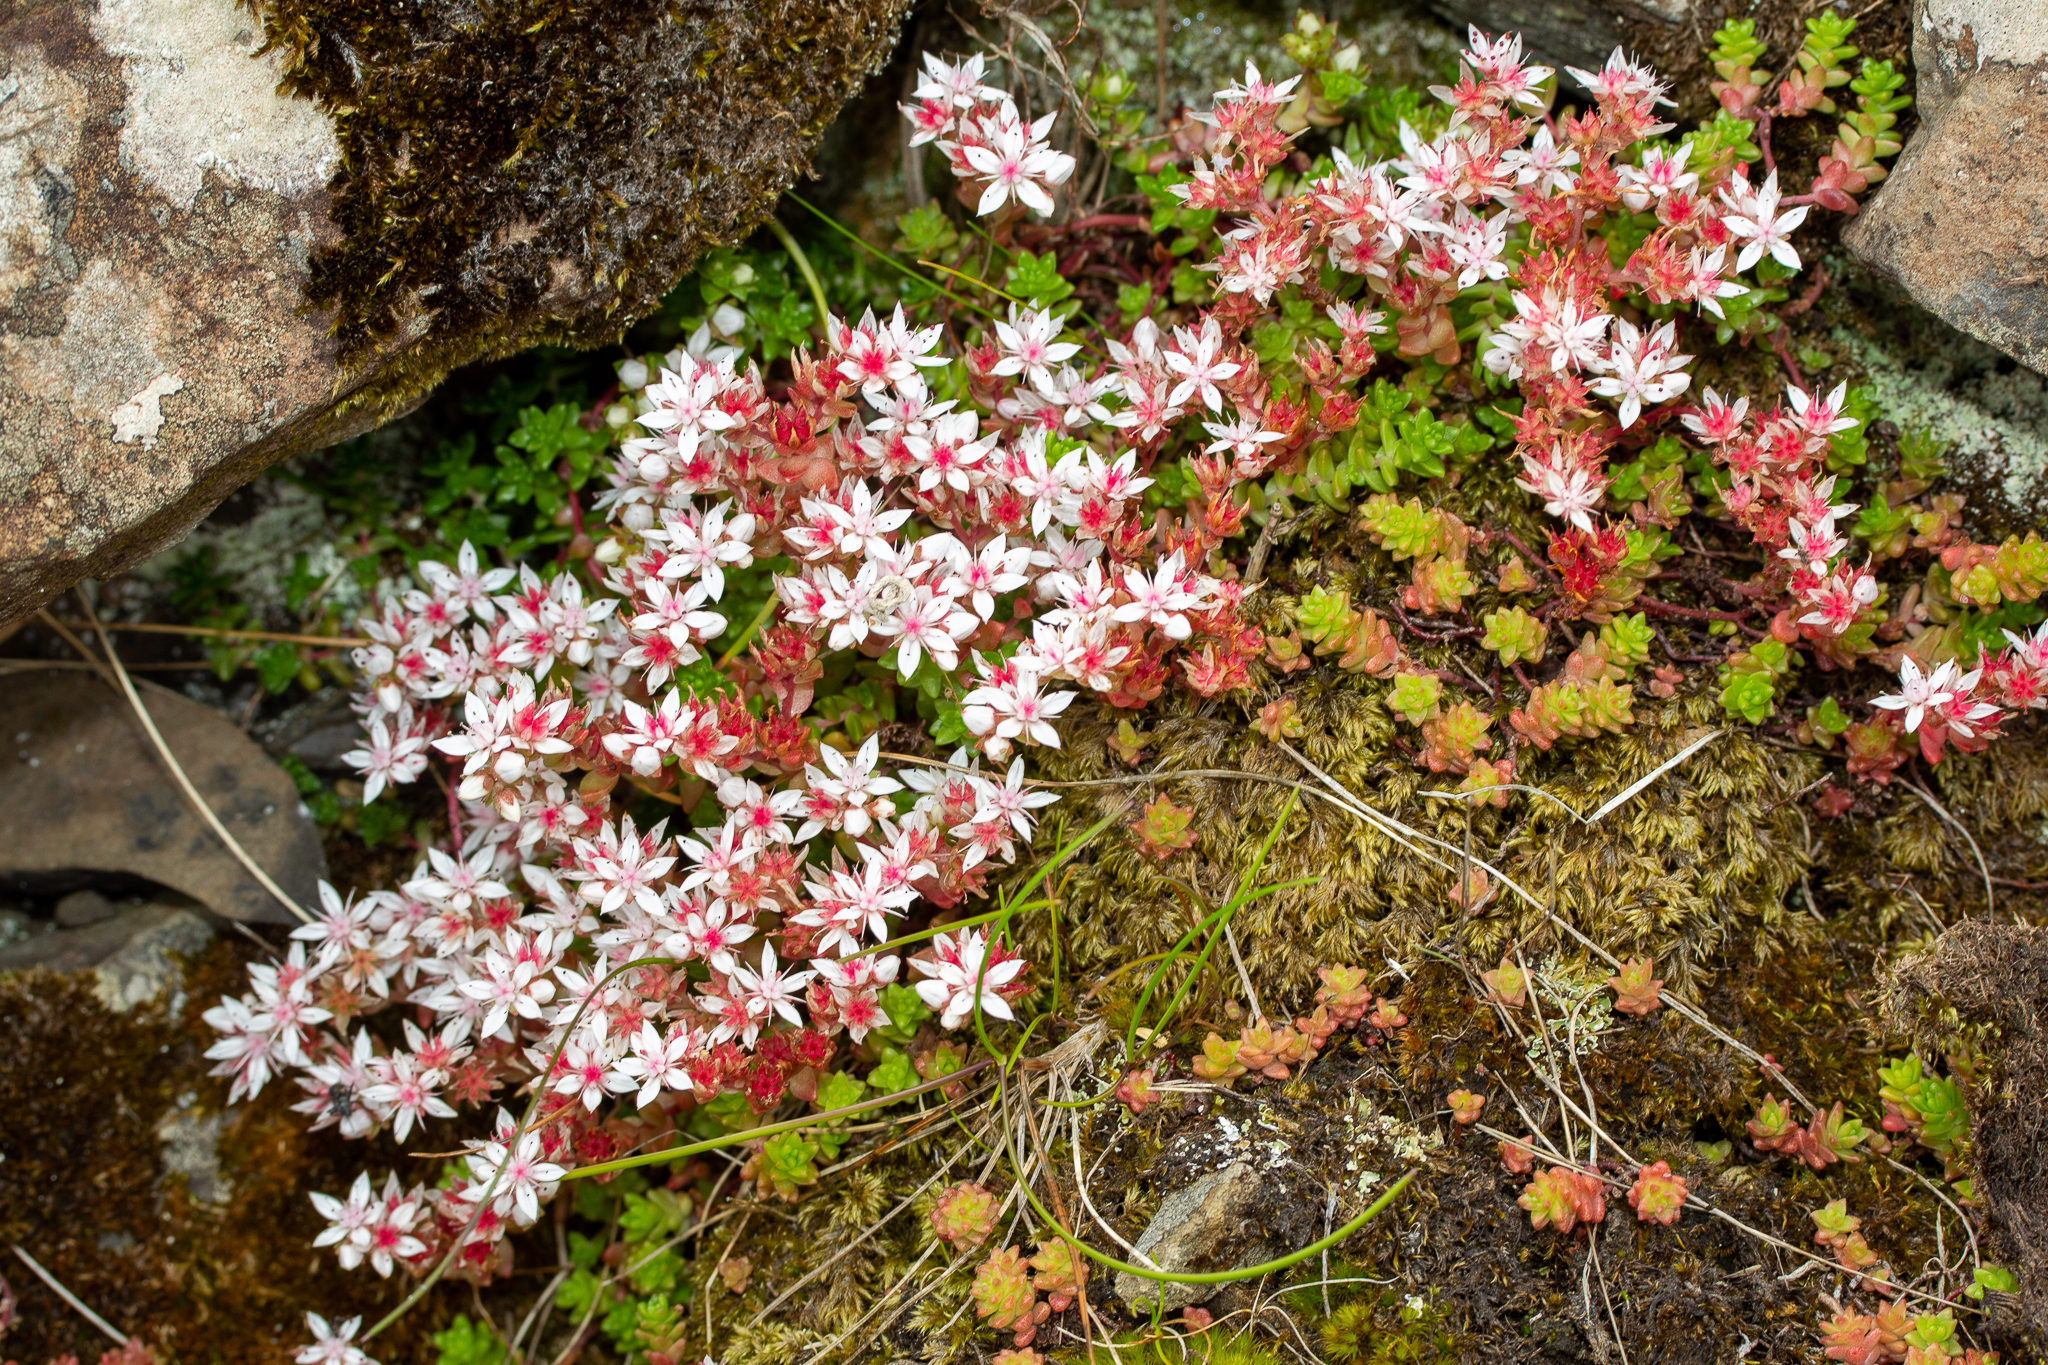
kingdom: Plantae
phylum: Tracheophyta
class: Magnoliopsida
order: Saxifragales
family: Crassulaceae
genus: Sedum
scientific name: Sedum anglicum
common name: English stonecrop
